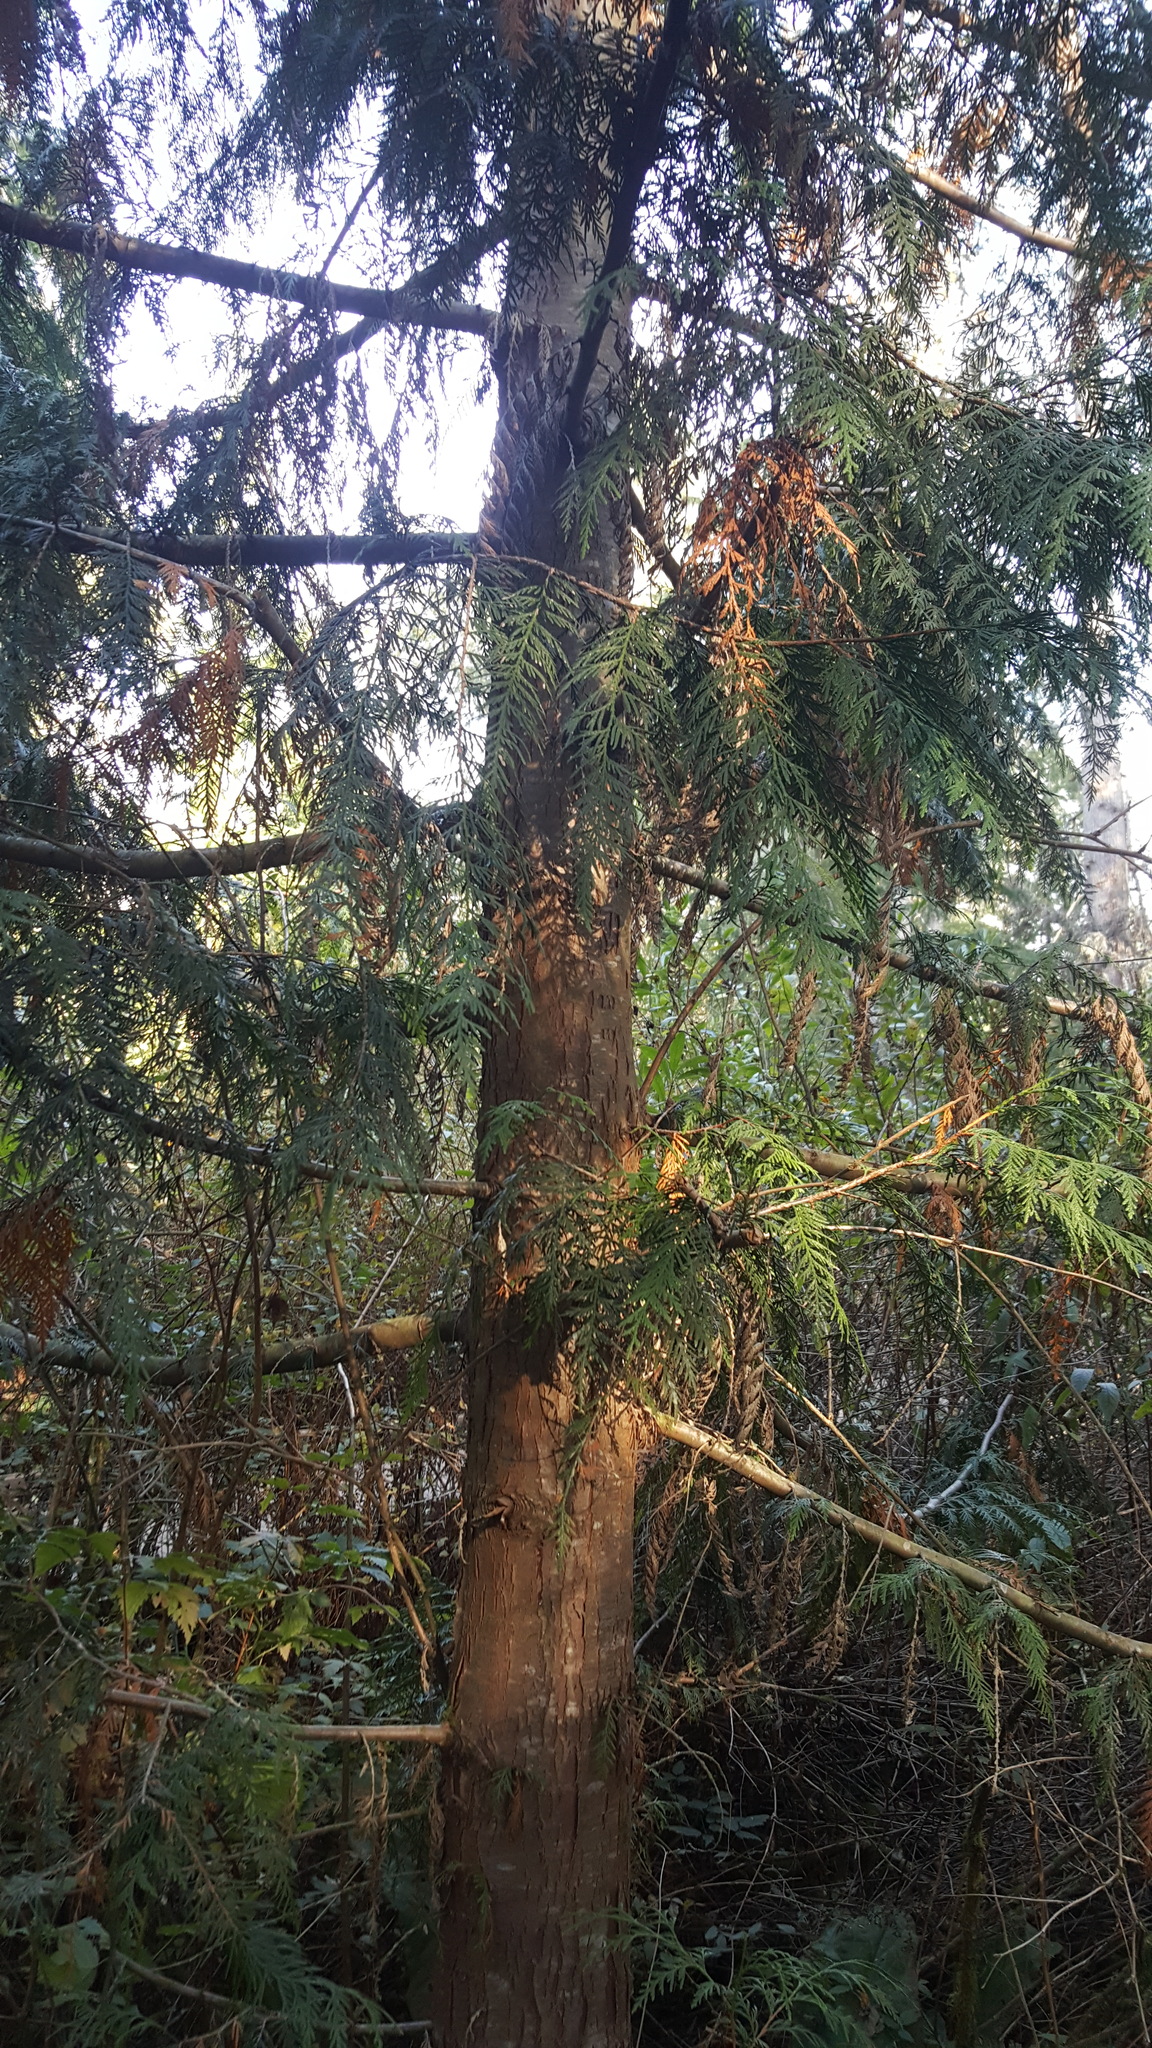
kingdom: Plantae
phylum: Tracheophyta
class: Pinopsida
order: Pinales
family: Cupressaceae
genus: Thuja
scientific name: Thuja plicata
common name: Western red-cedar
